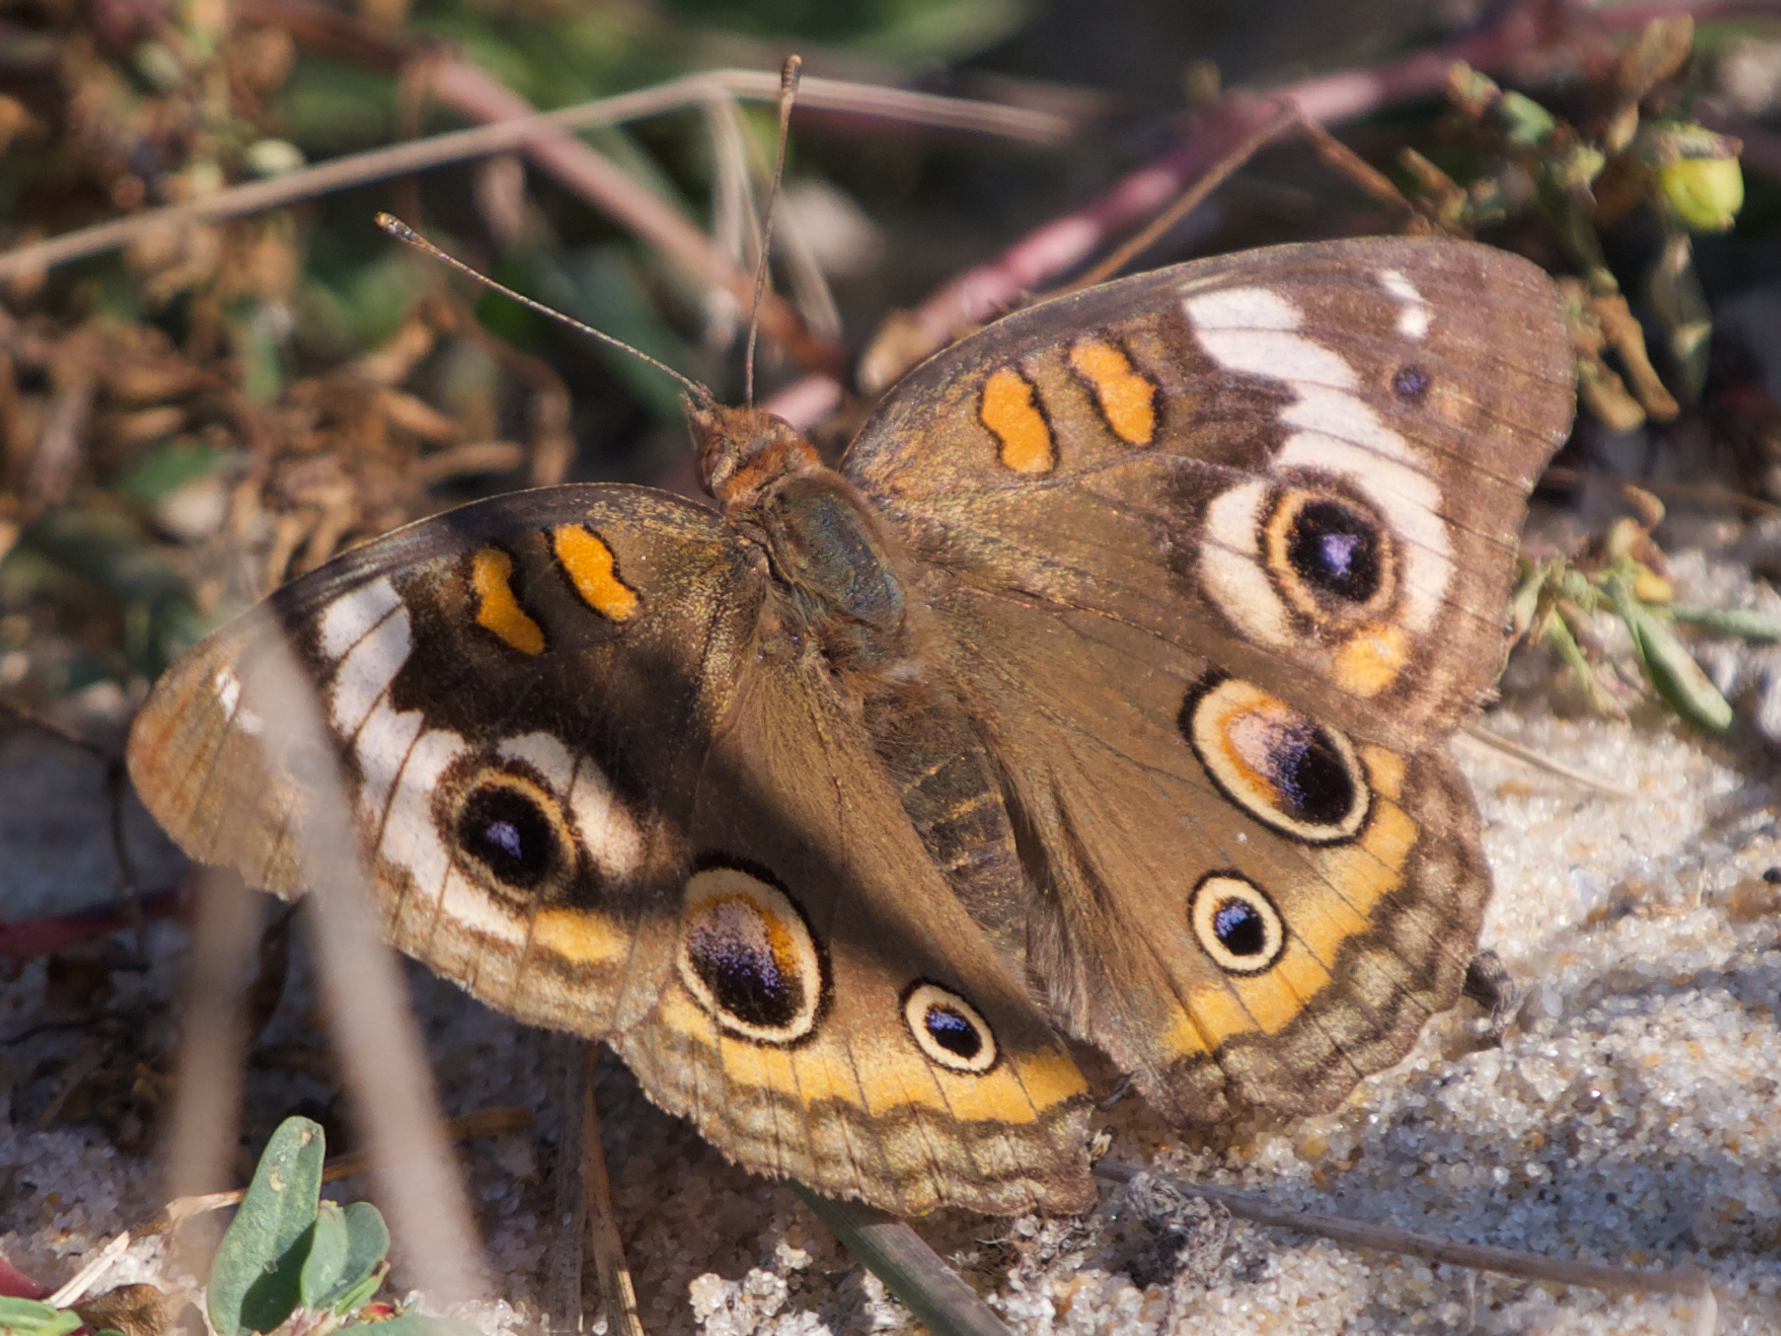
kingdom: Animalia
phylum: Arthropoda
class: Insecta
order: Lepidoptera
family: Nymphalidae
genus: Junonia
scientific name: Junonia coenia
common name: Common buckeye
